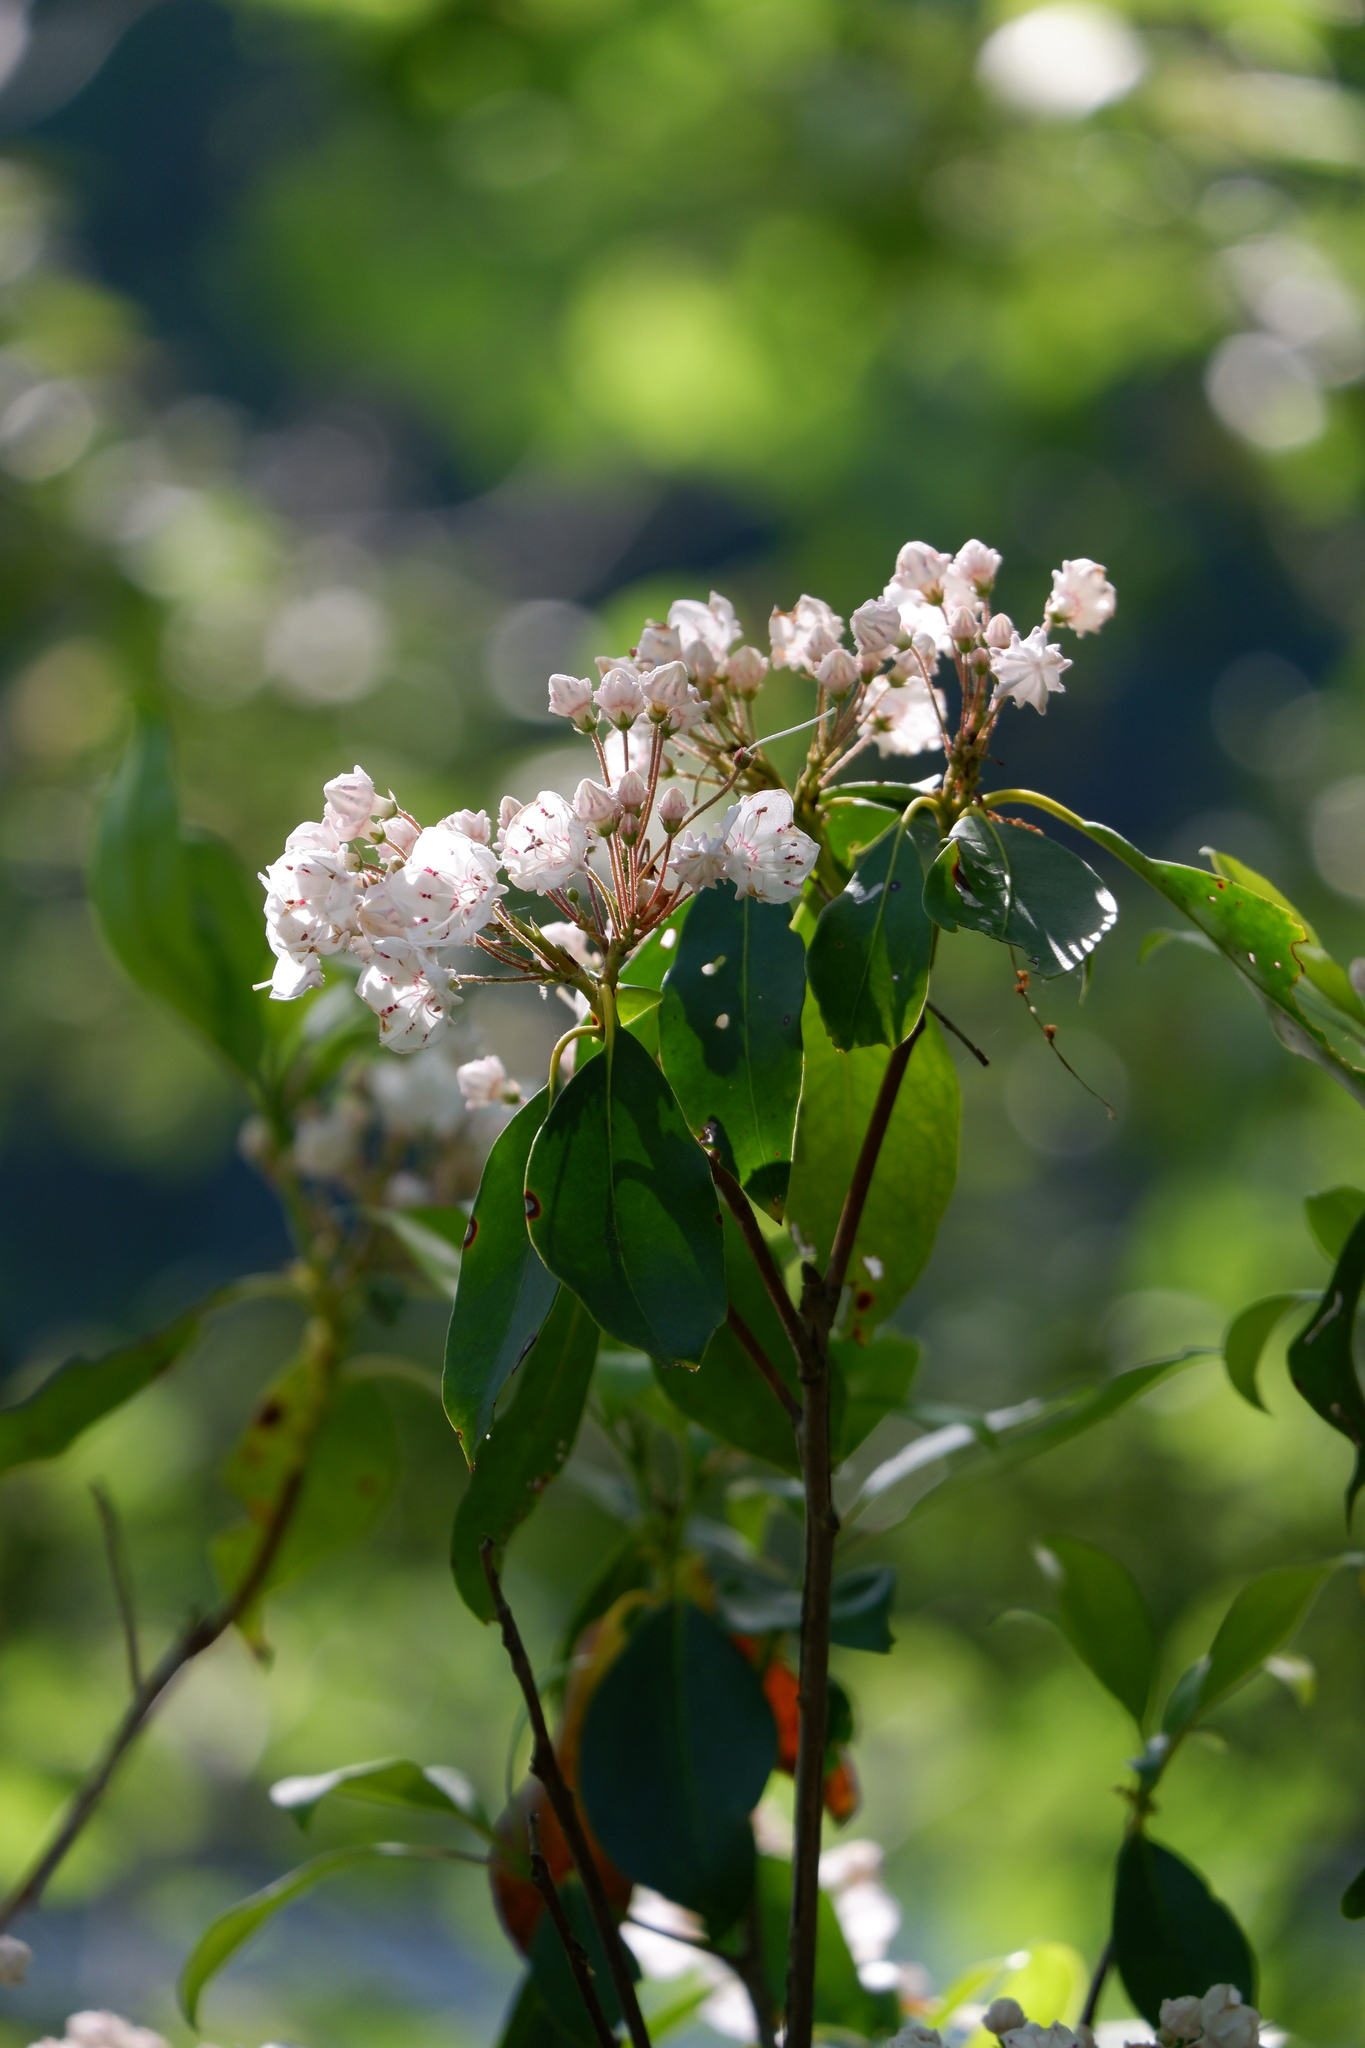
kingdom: Plantae
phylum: Tracheophyta
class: Magnoliopsida
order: Ericales
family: Ericaceae
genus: Kalmia
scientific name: Kalmia latifolia
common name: Mountain-laurel
